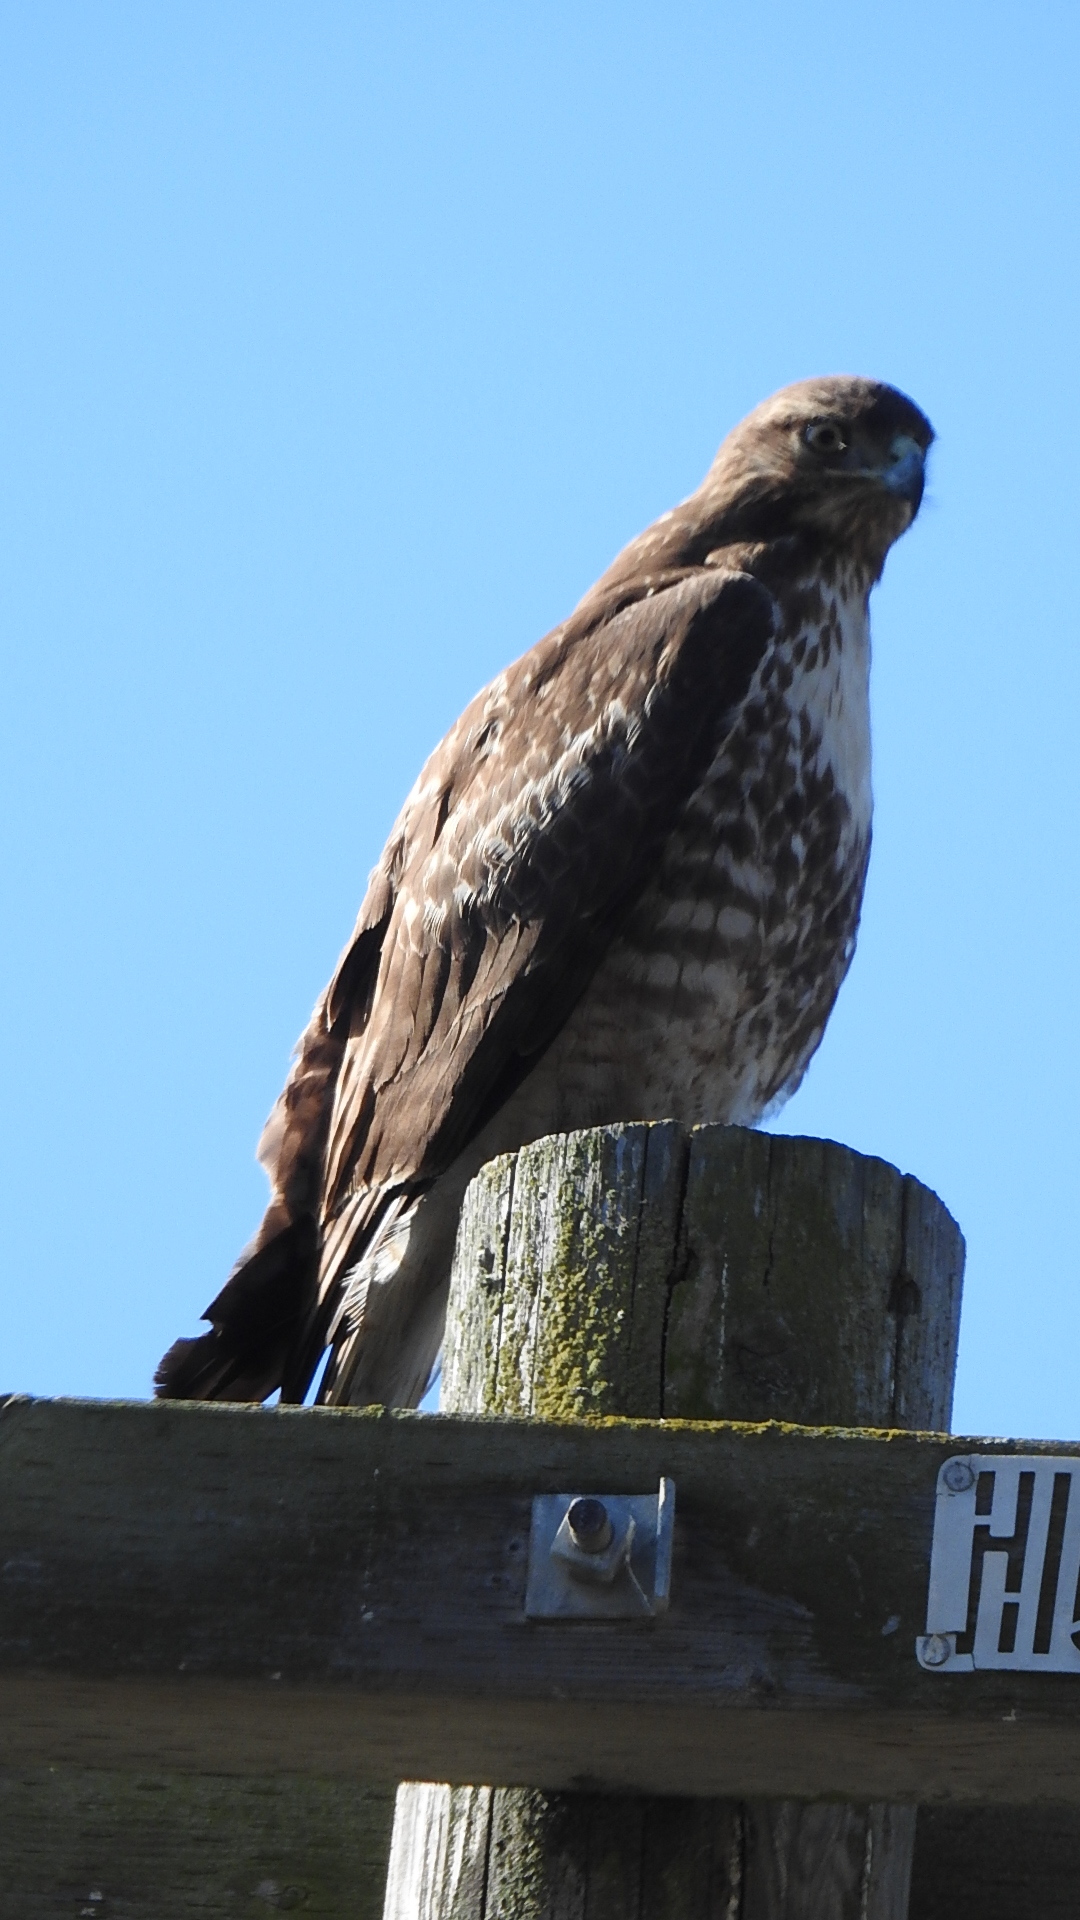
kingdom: Animalia
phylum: Chordata
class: Aves
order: Accipitriformes
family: Accipitridae
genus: Buteo
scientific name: Buteo jamaicensis
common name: Red-tailed hawk
